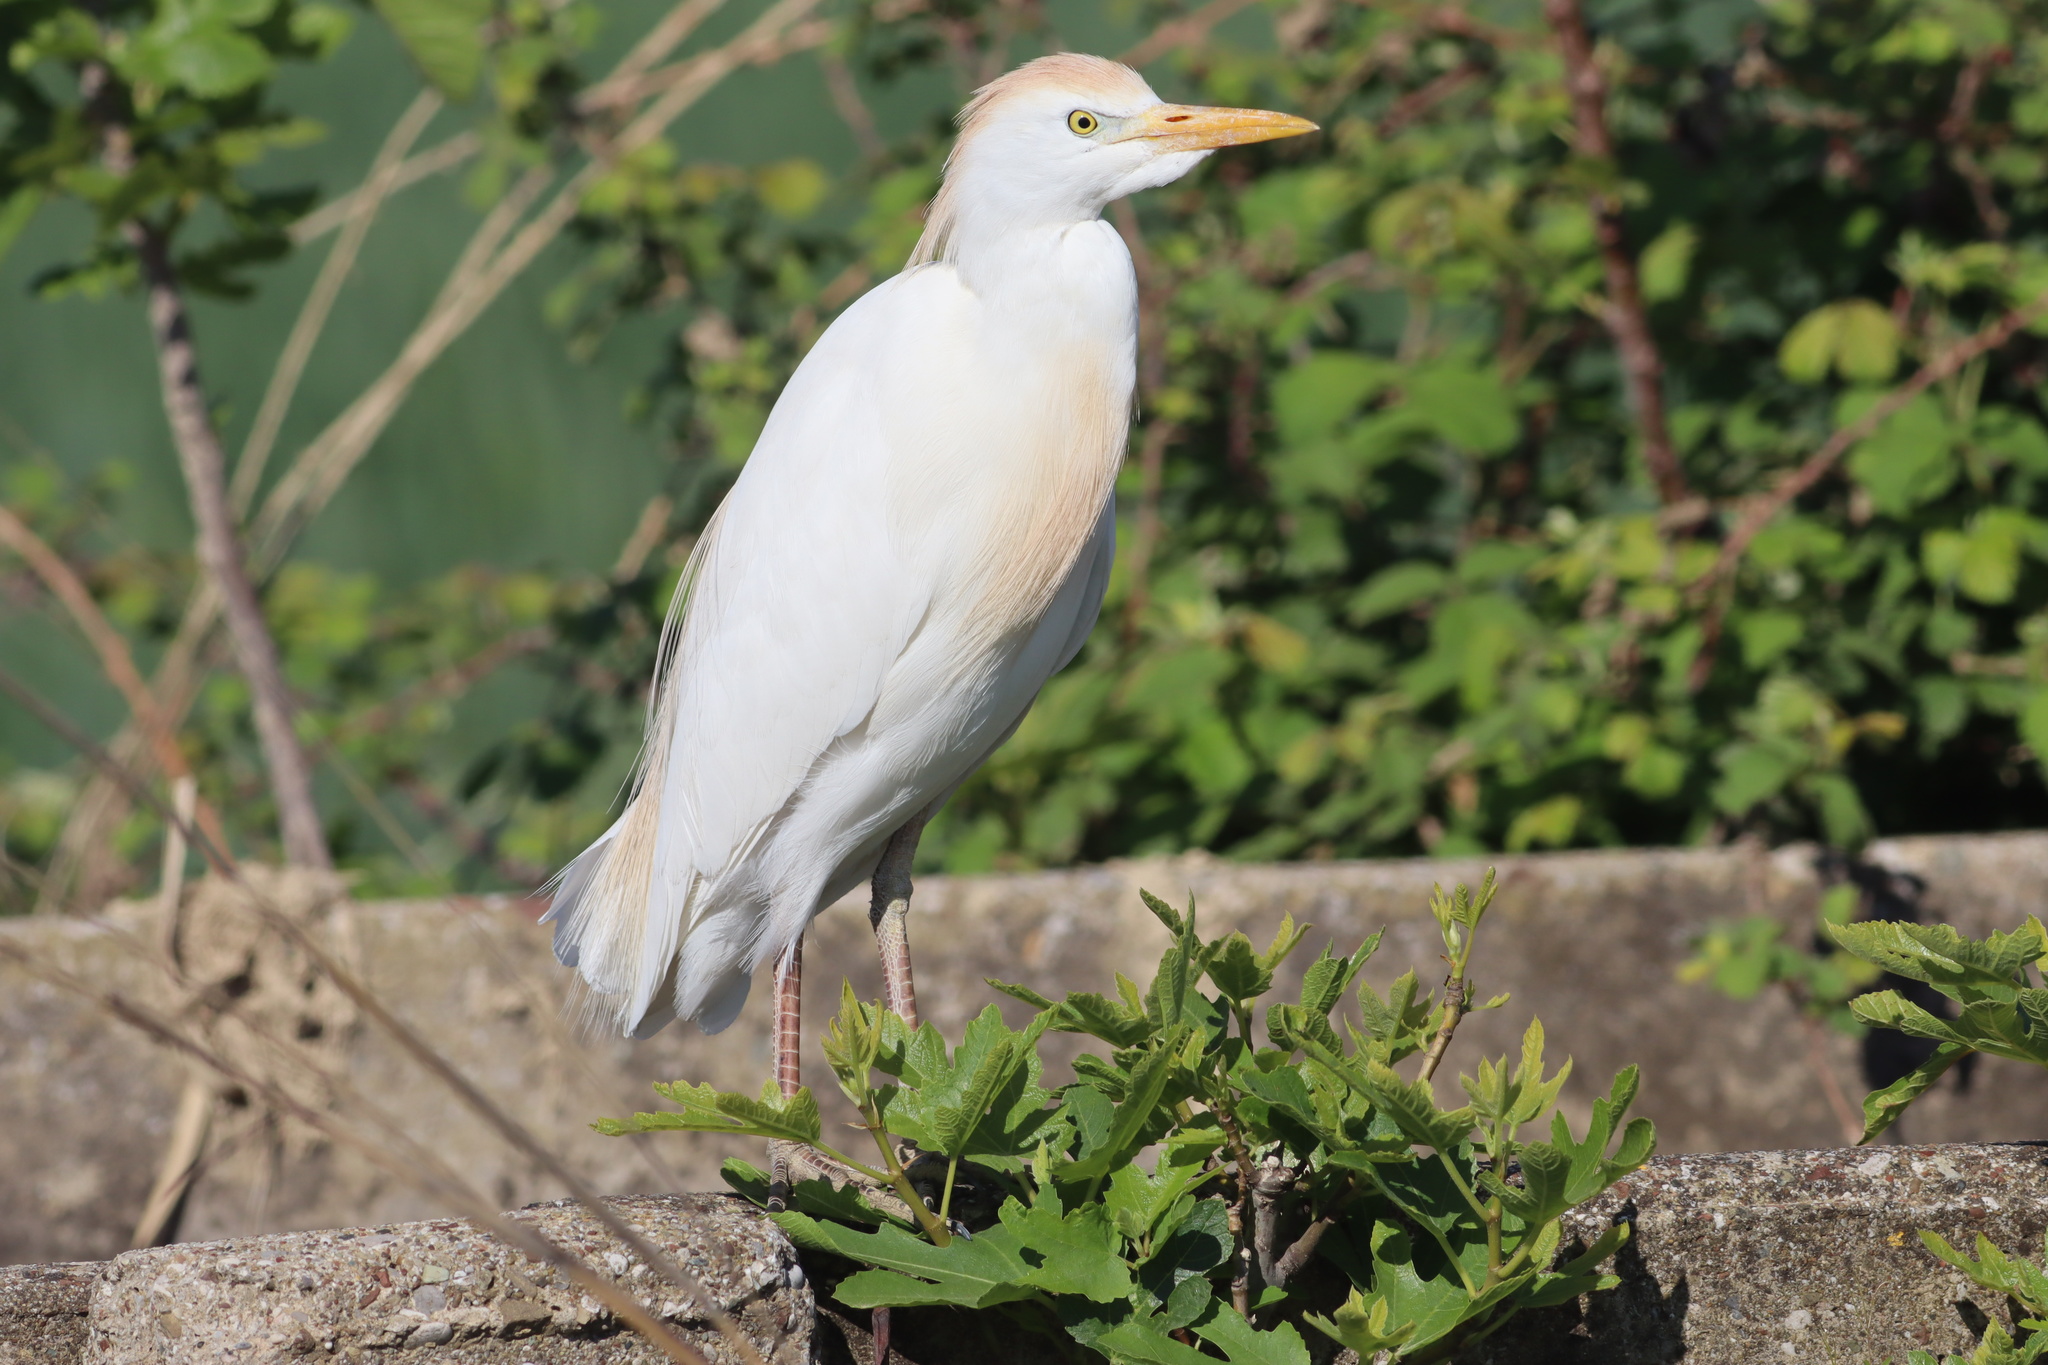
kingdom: Animalia
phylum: Chordata
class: Aves
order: Pelecaniformes
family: Ardeidae
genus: Bubulcus
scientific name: Bubulcus ibis
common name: Cattle egret
